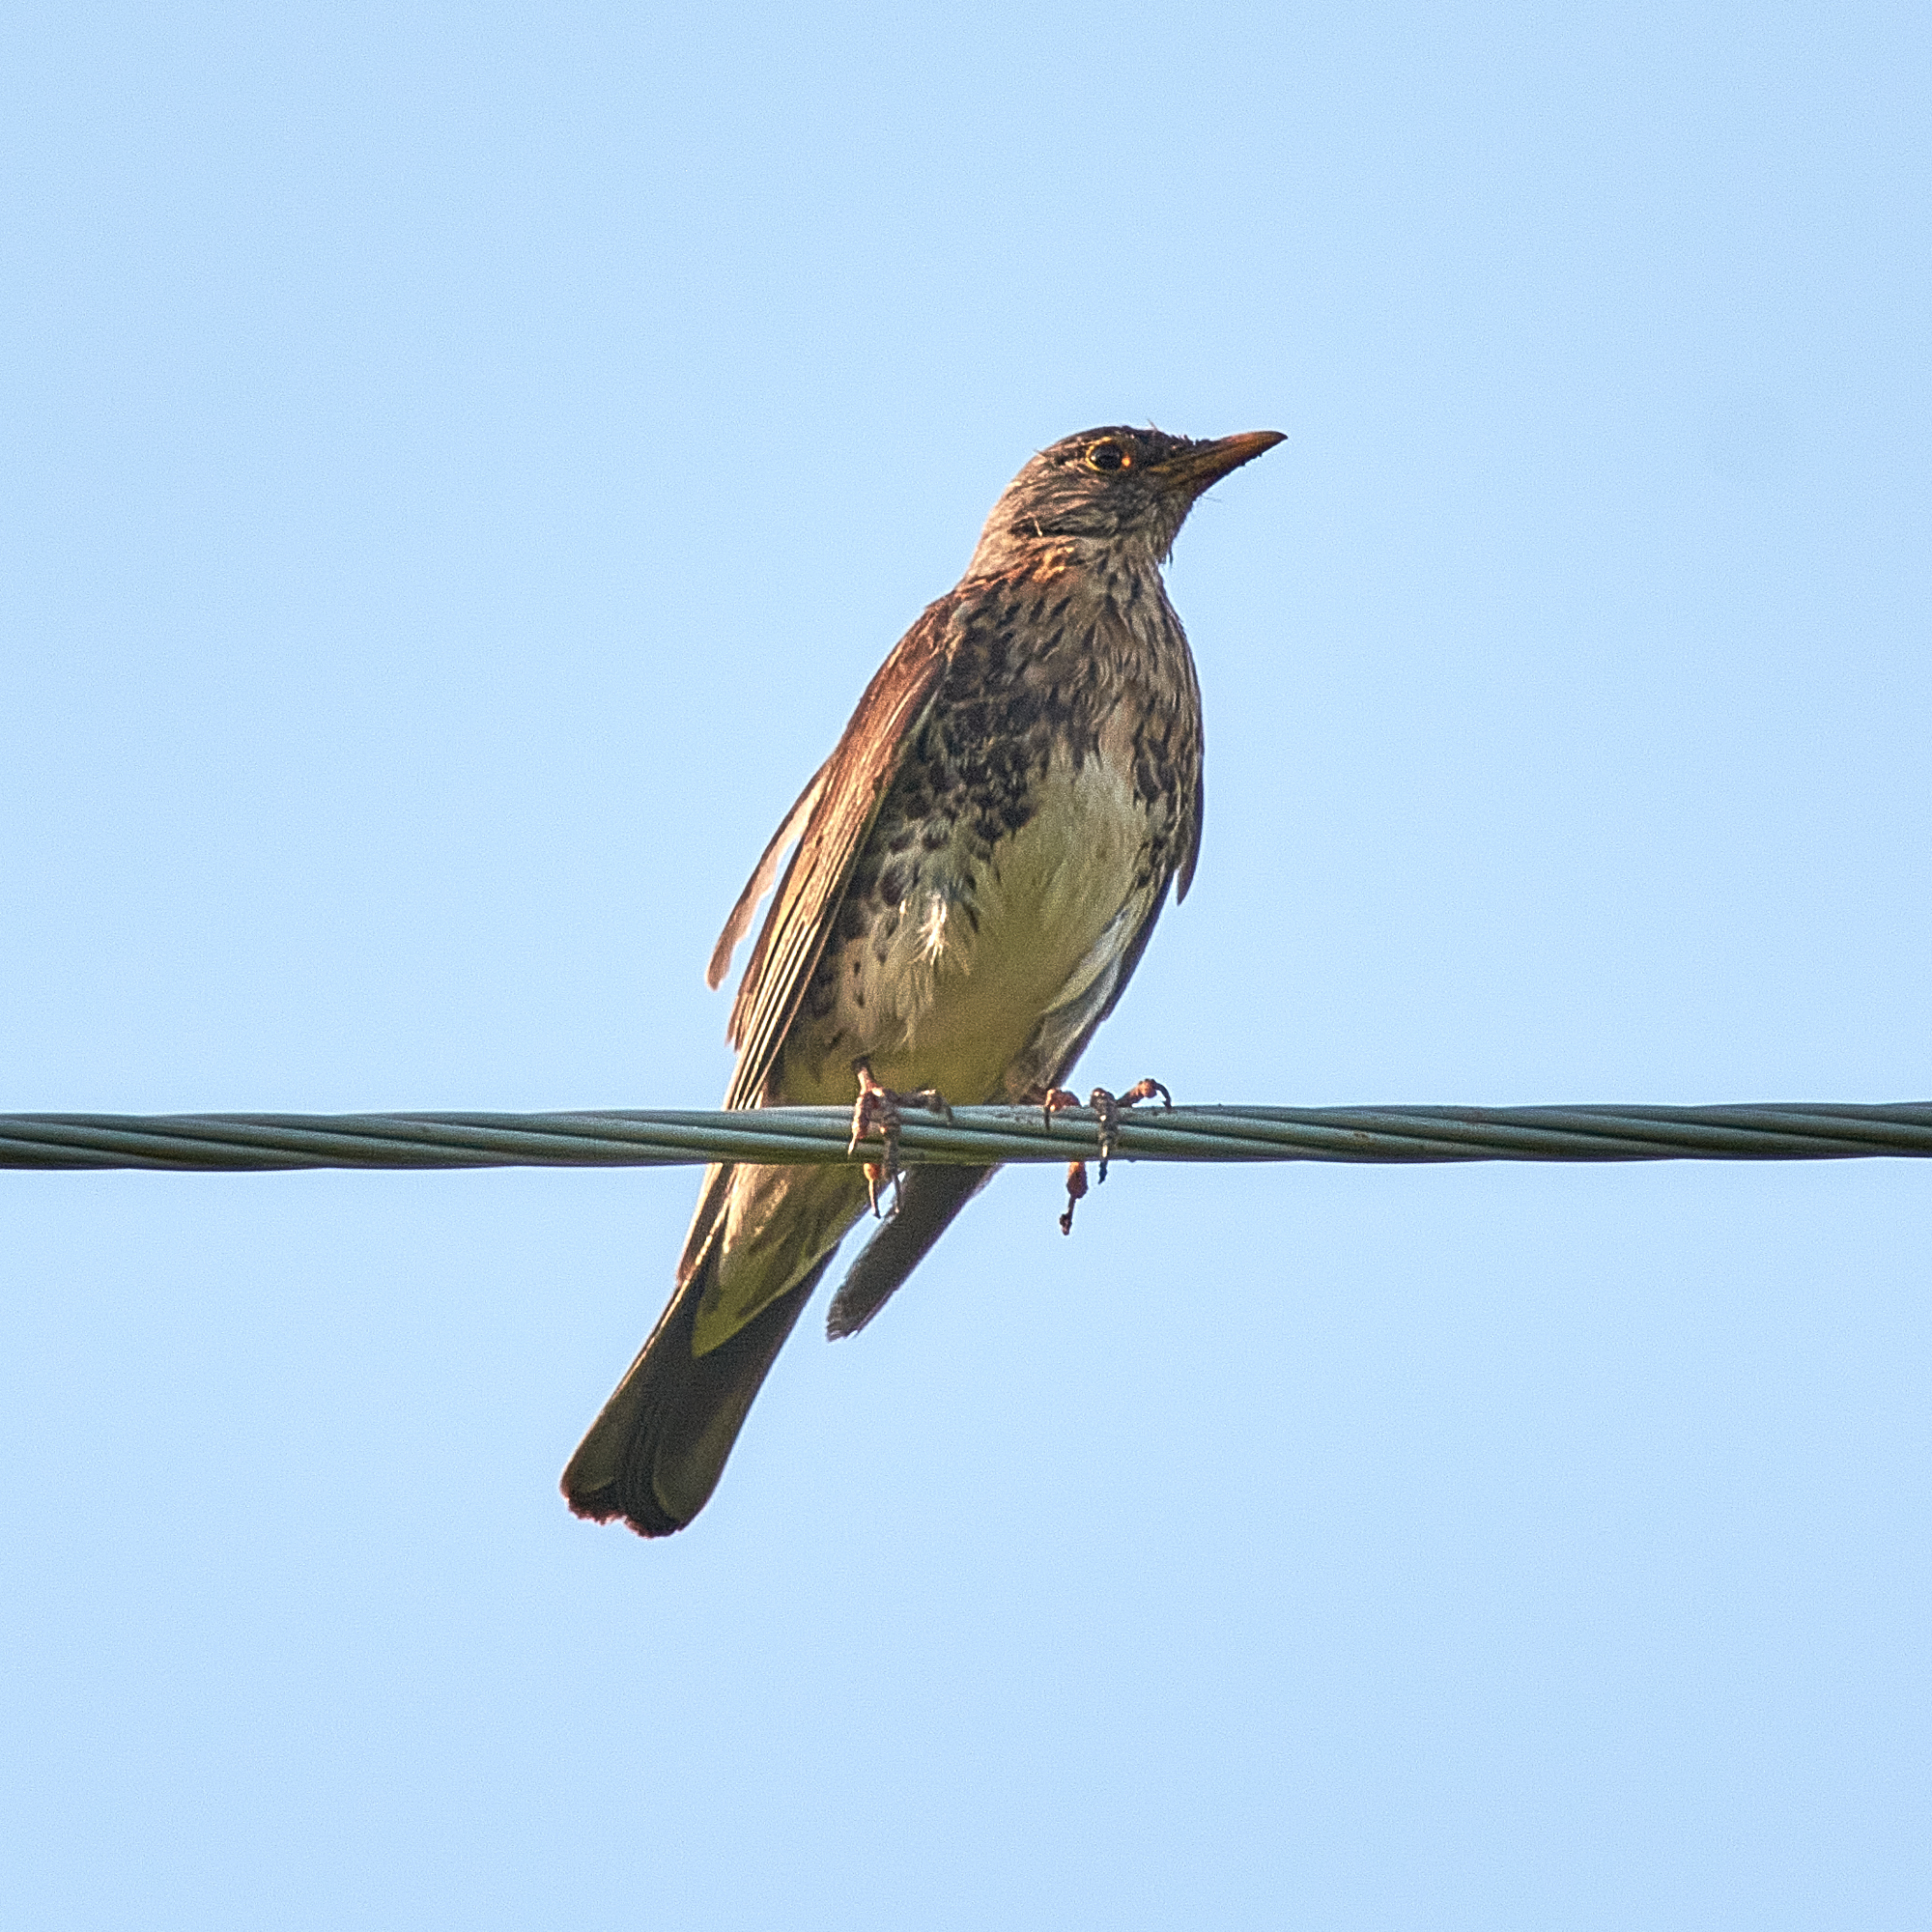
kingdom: Animalia
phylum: Chordata
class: Aves
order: Passeriformes
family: Turdidae
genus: Turdus
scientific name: Turdus pilaris
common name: Fieldfare
